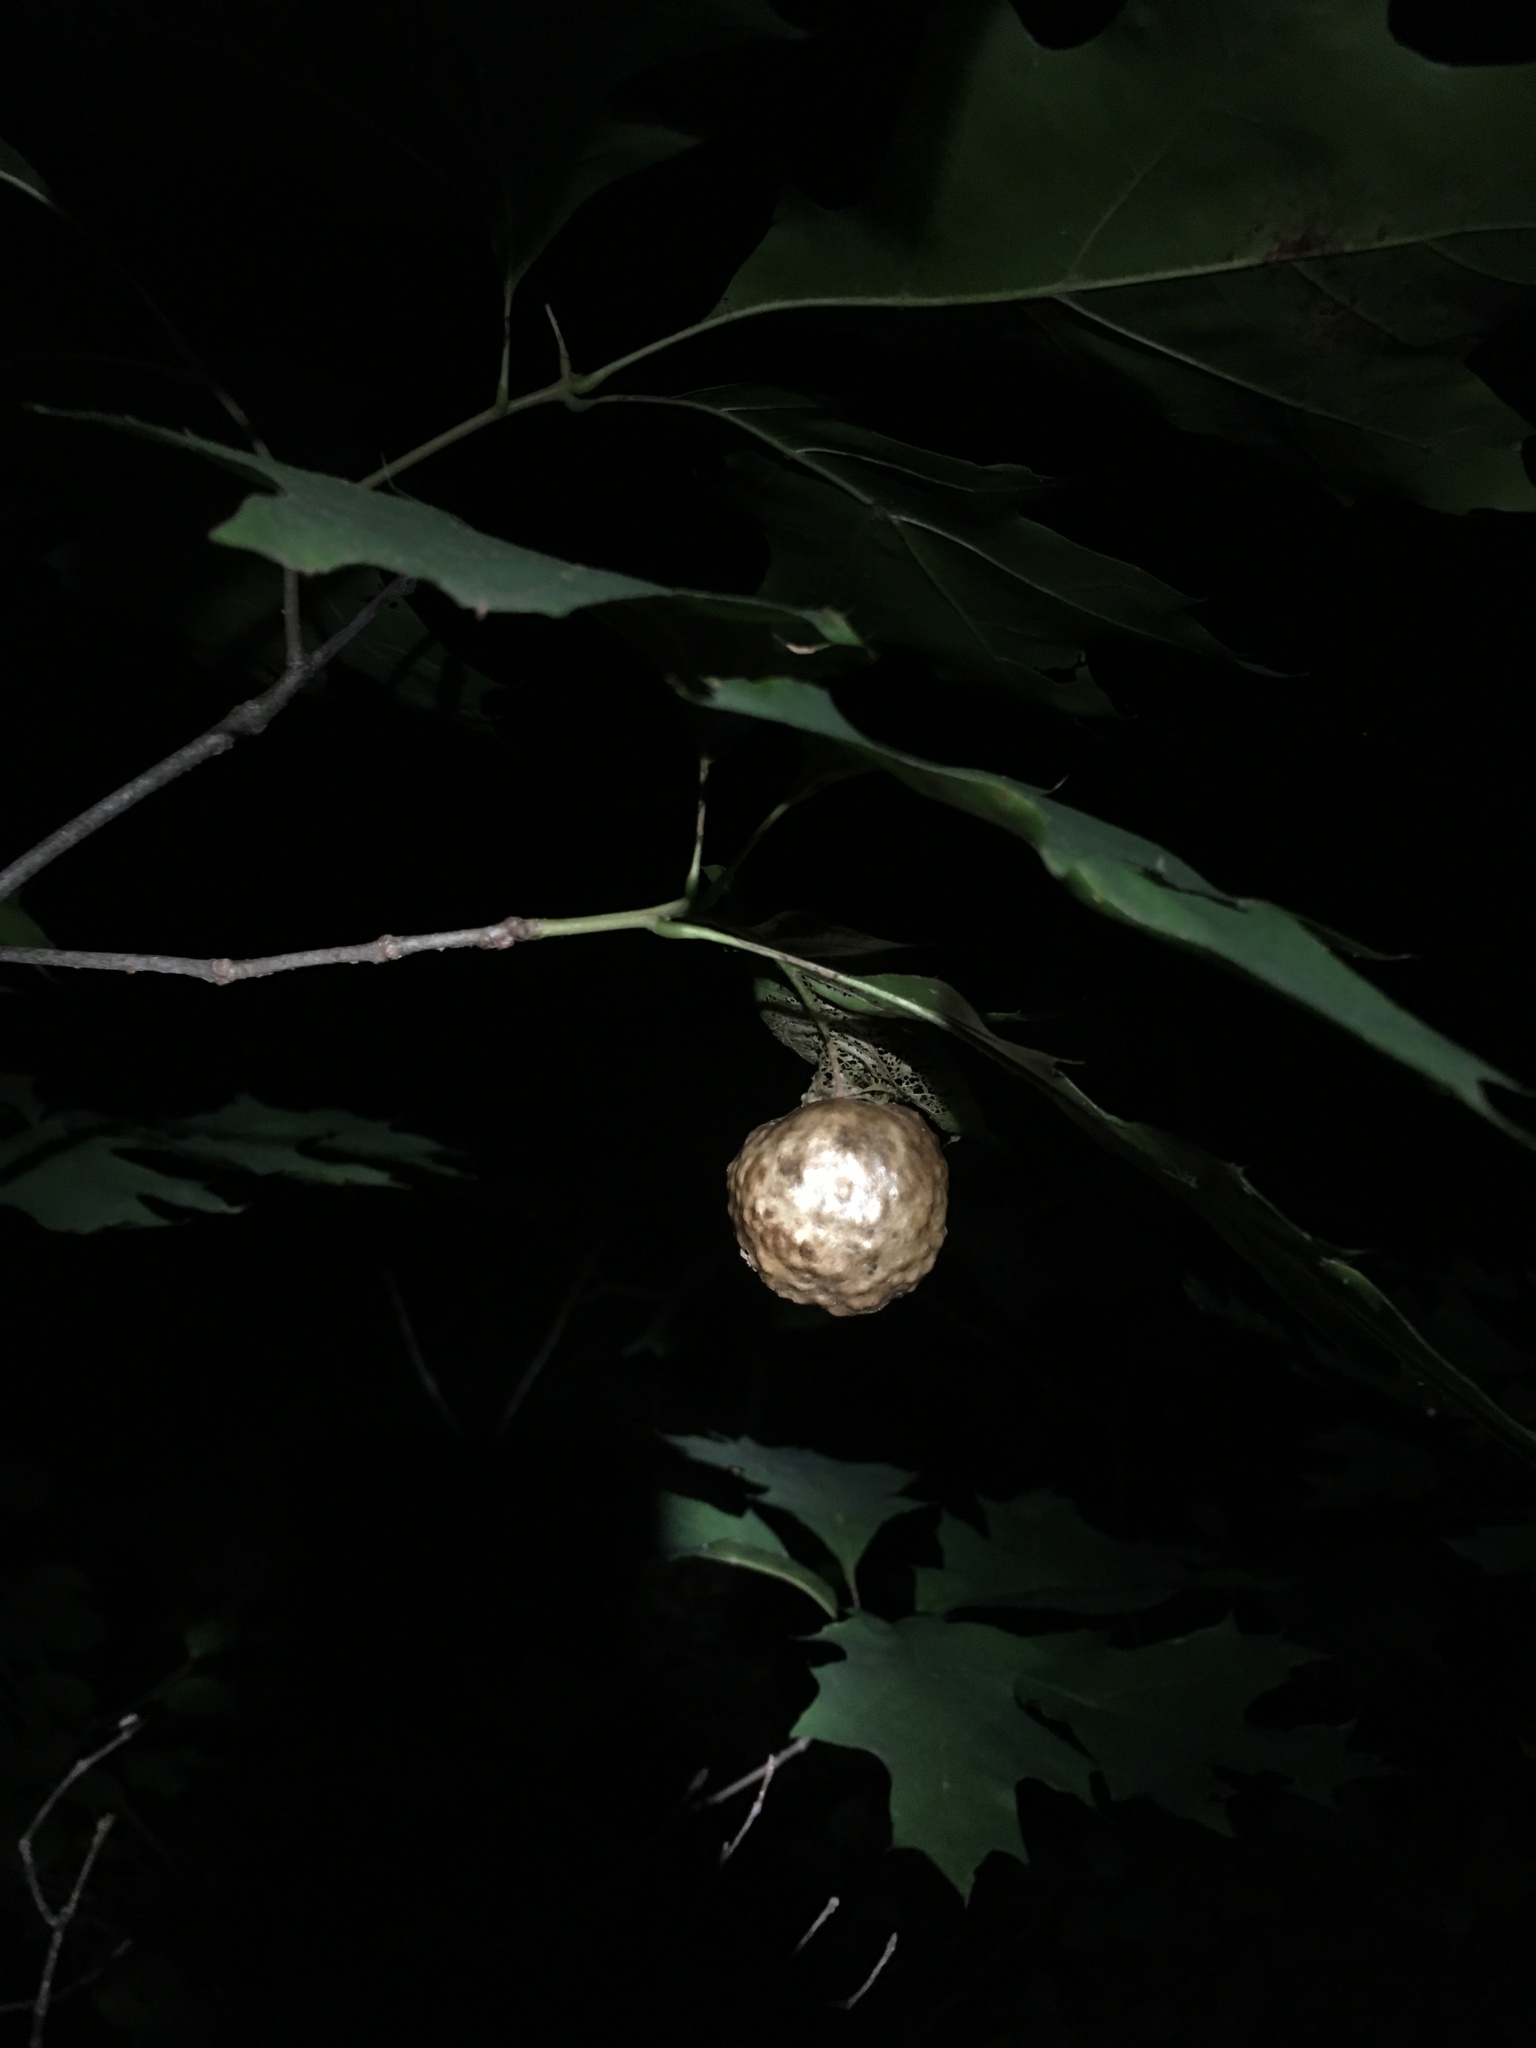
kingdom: Animalia
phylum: Arthropoda
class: Insecta
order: Hymenoptera
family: Cynipidae
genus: Amphibolips
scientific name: Amphibolips
